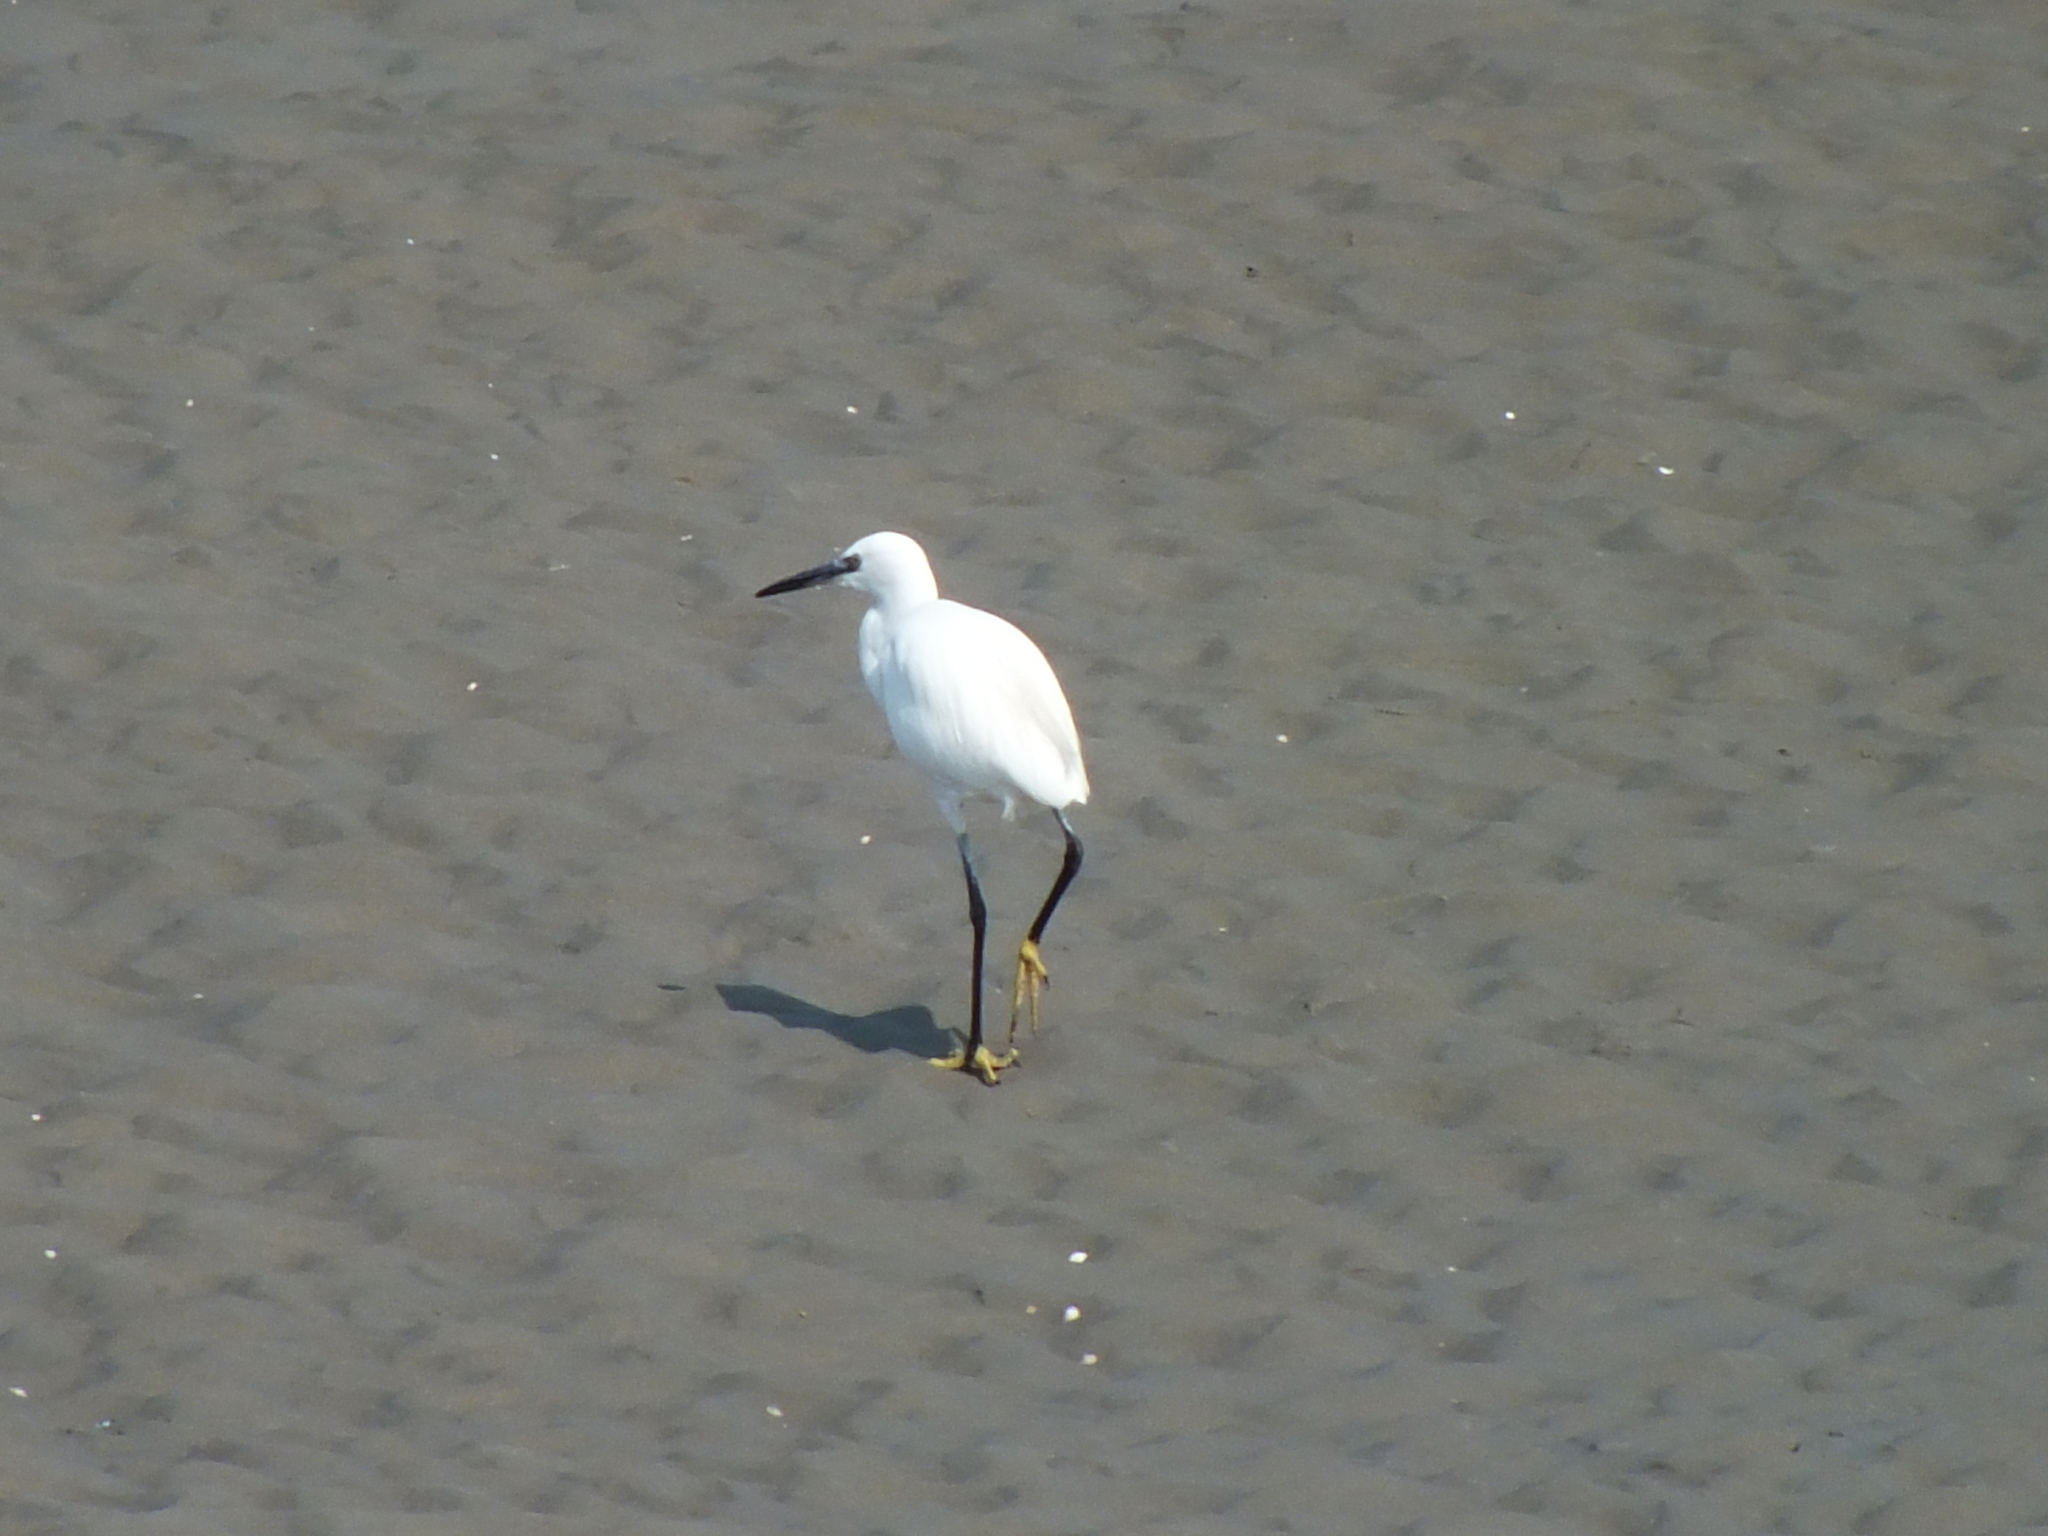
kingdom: Animalia
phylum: Chordata
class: Aves
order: Pelecaniformes
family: Ardeidae
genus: Egretta
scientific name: Egretta garzetta
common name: Little egret
